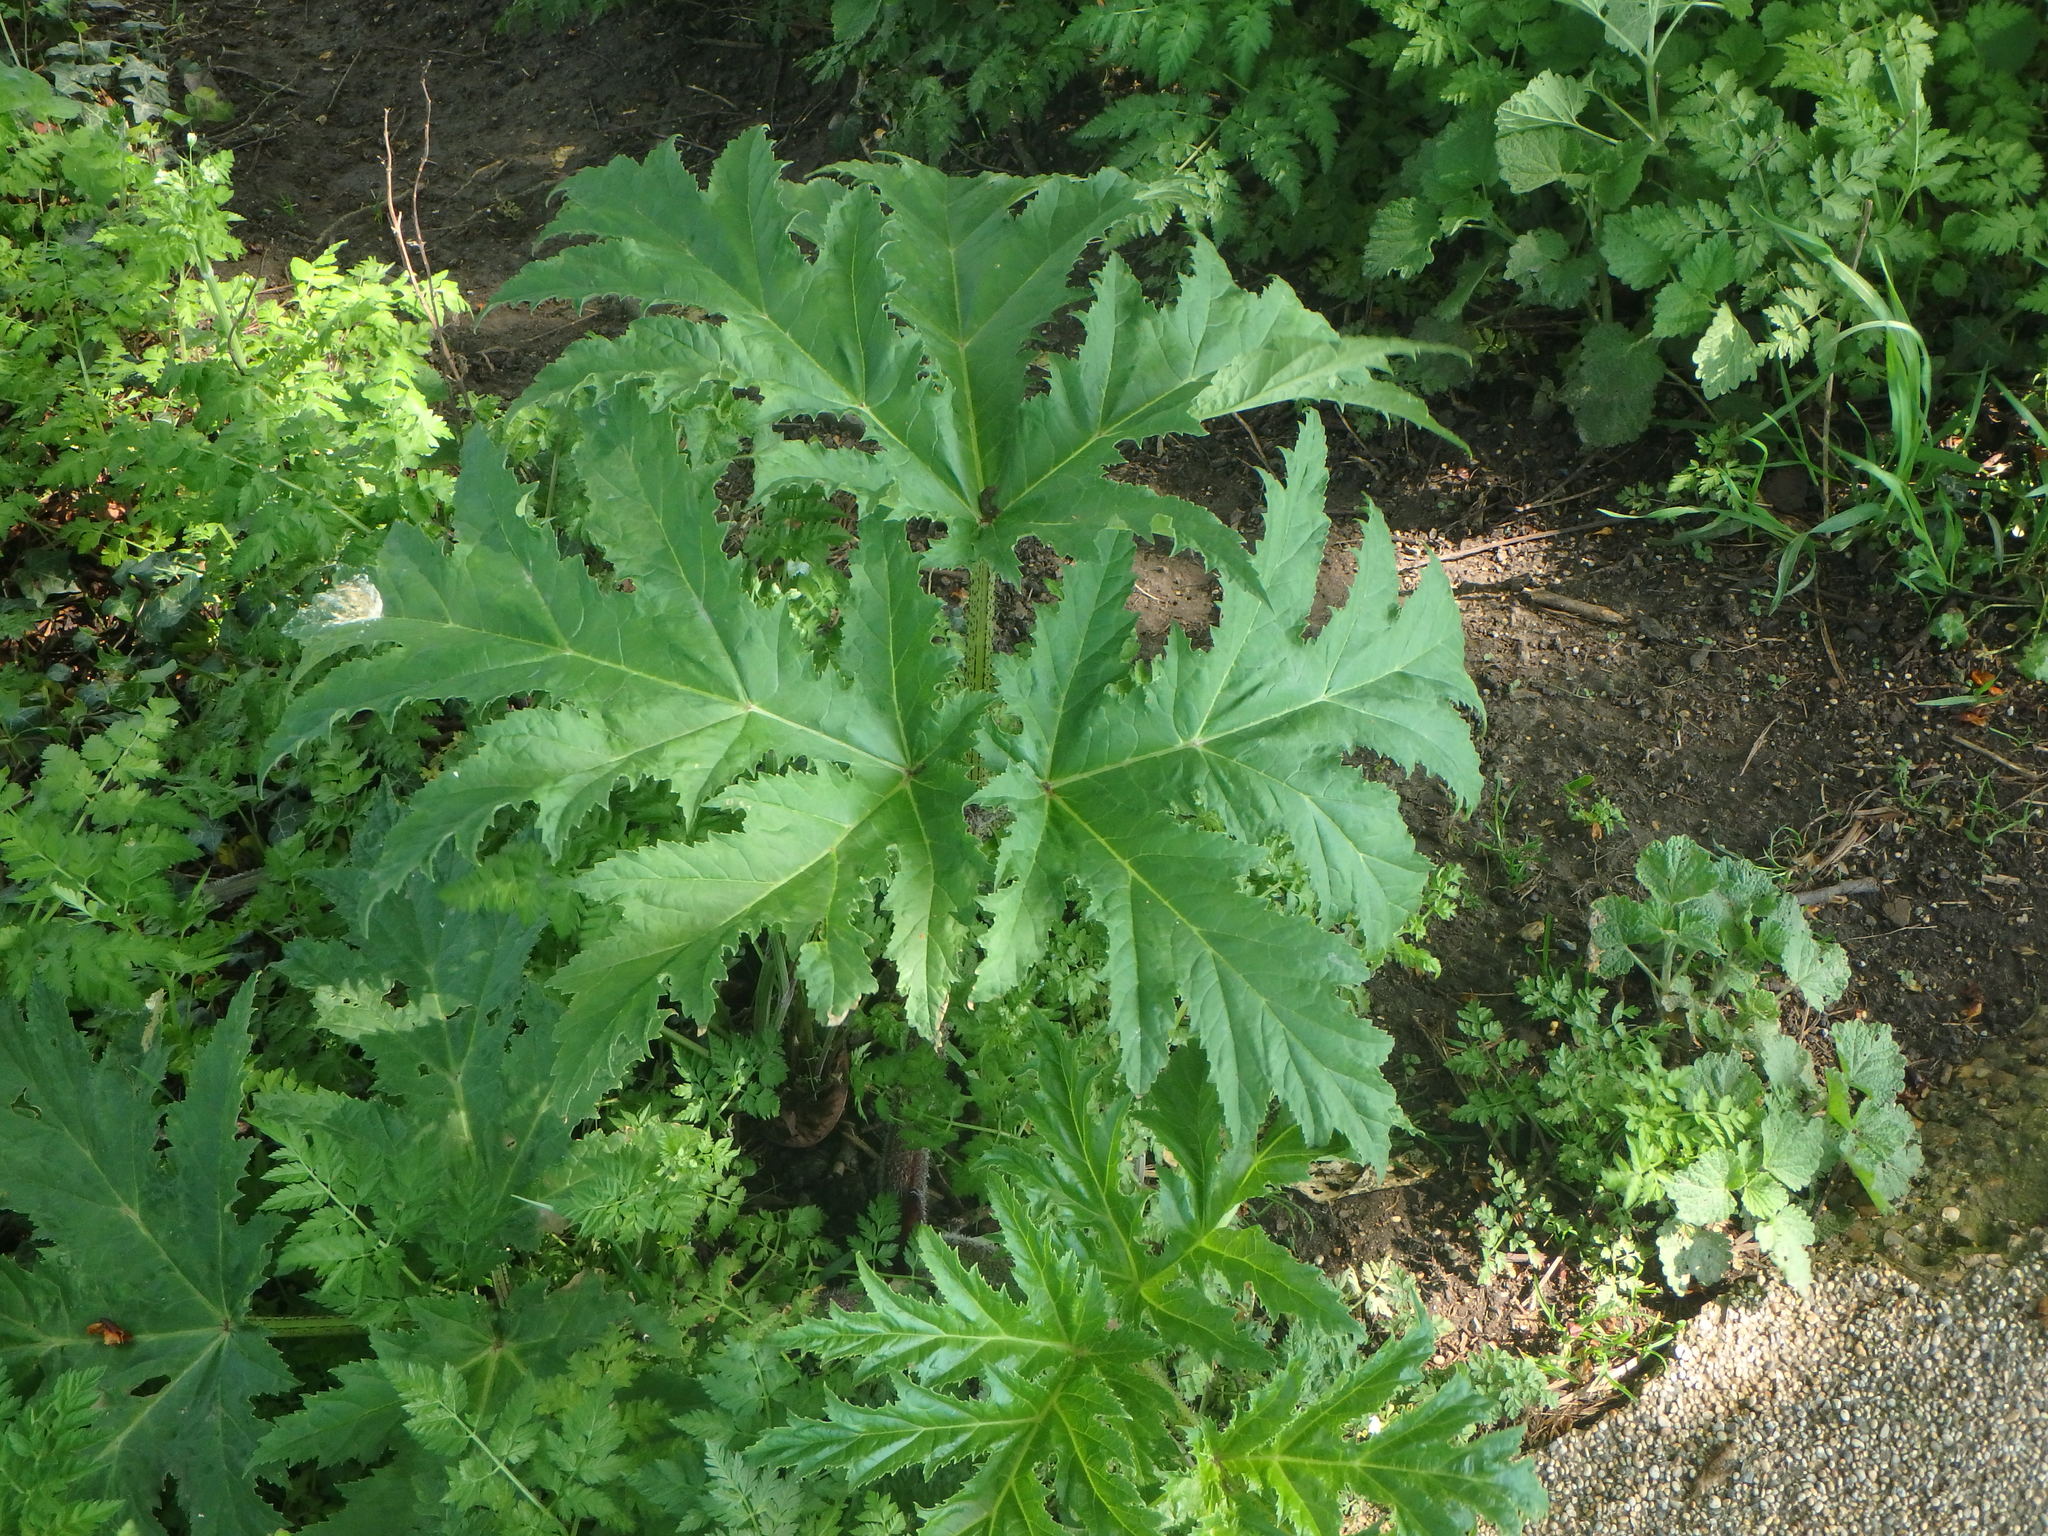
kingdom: Plantae
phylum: Tracheophyta
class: Magnoliopsida
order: Apiales
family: Apiaceae
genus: Heracleum
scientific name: Heracleum mantegazzianum
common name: Giant hogweed
